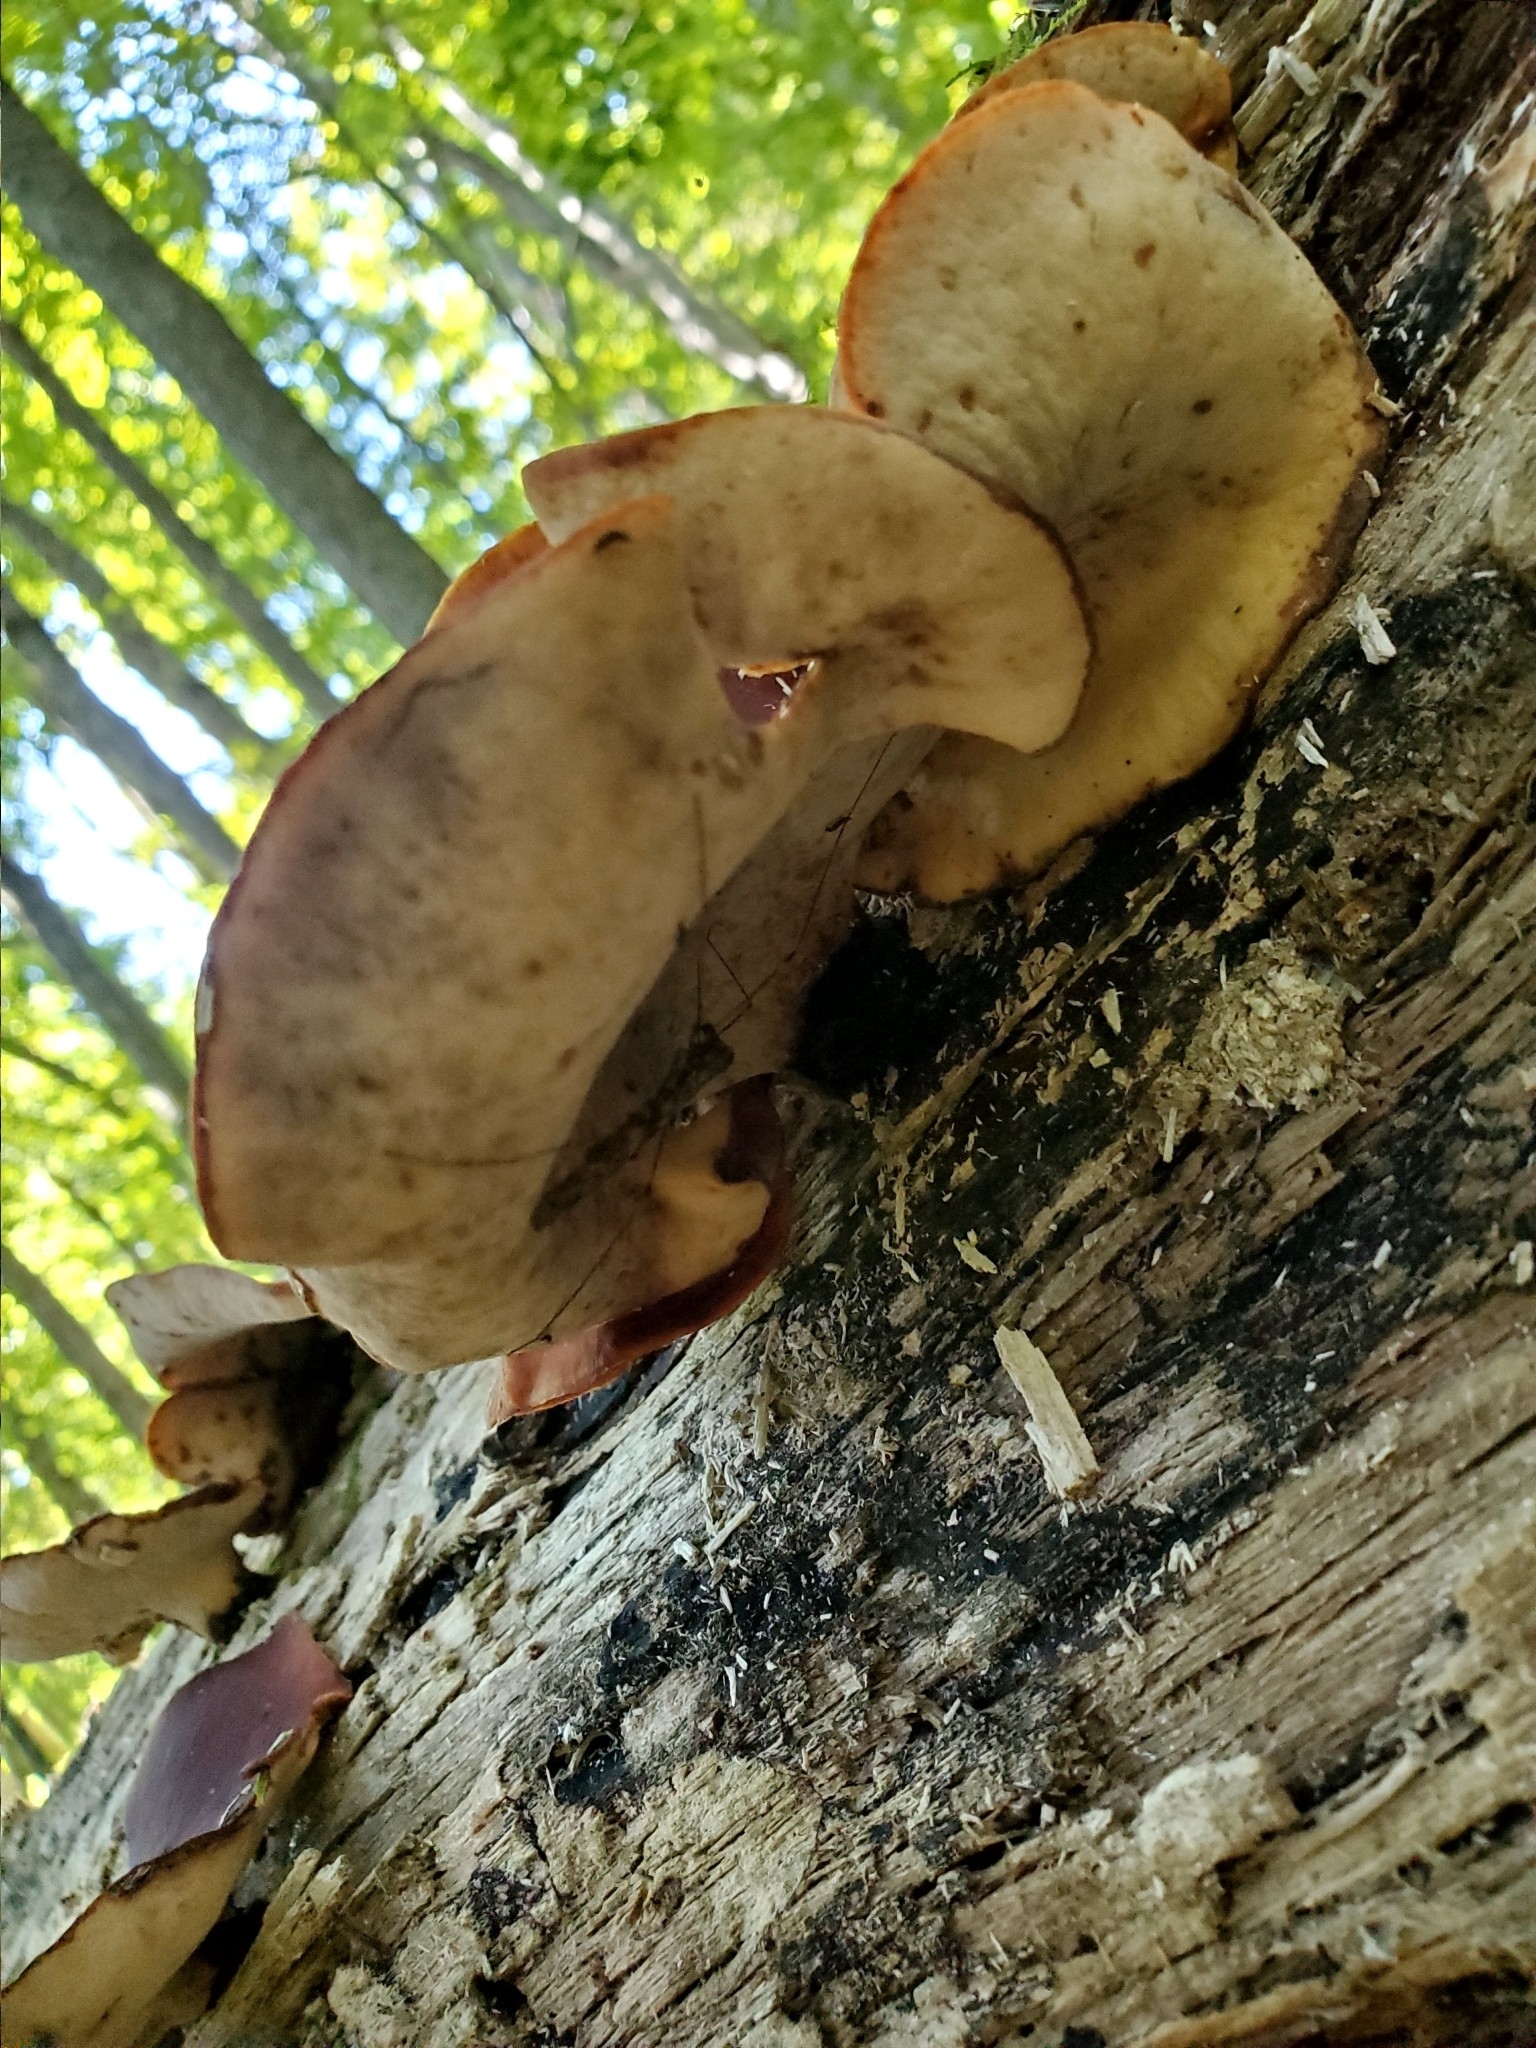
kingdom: Fungi
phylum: Basidiomycota
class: Agaricomycetes
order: Polyporales
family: Polyporaceae
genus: Picipes
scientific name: Picipes badius
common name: Bay polypore
